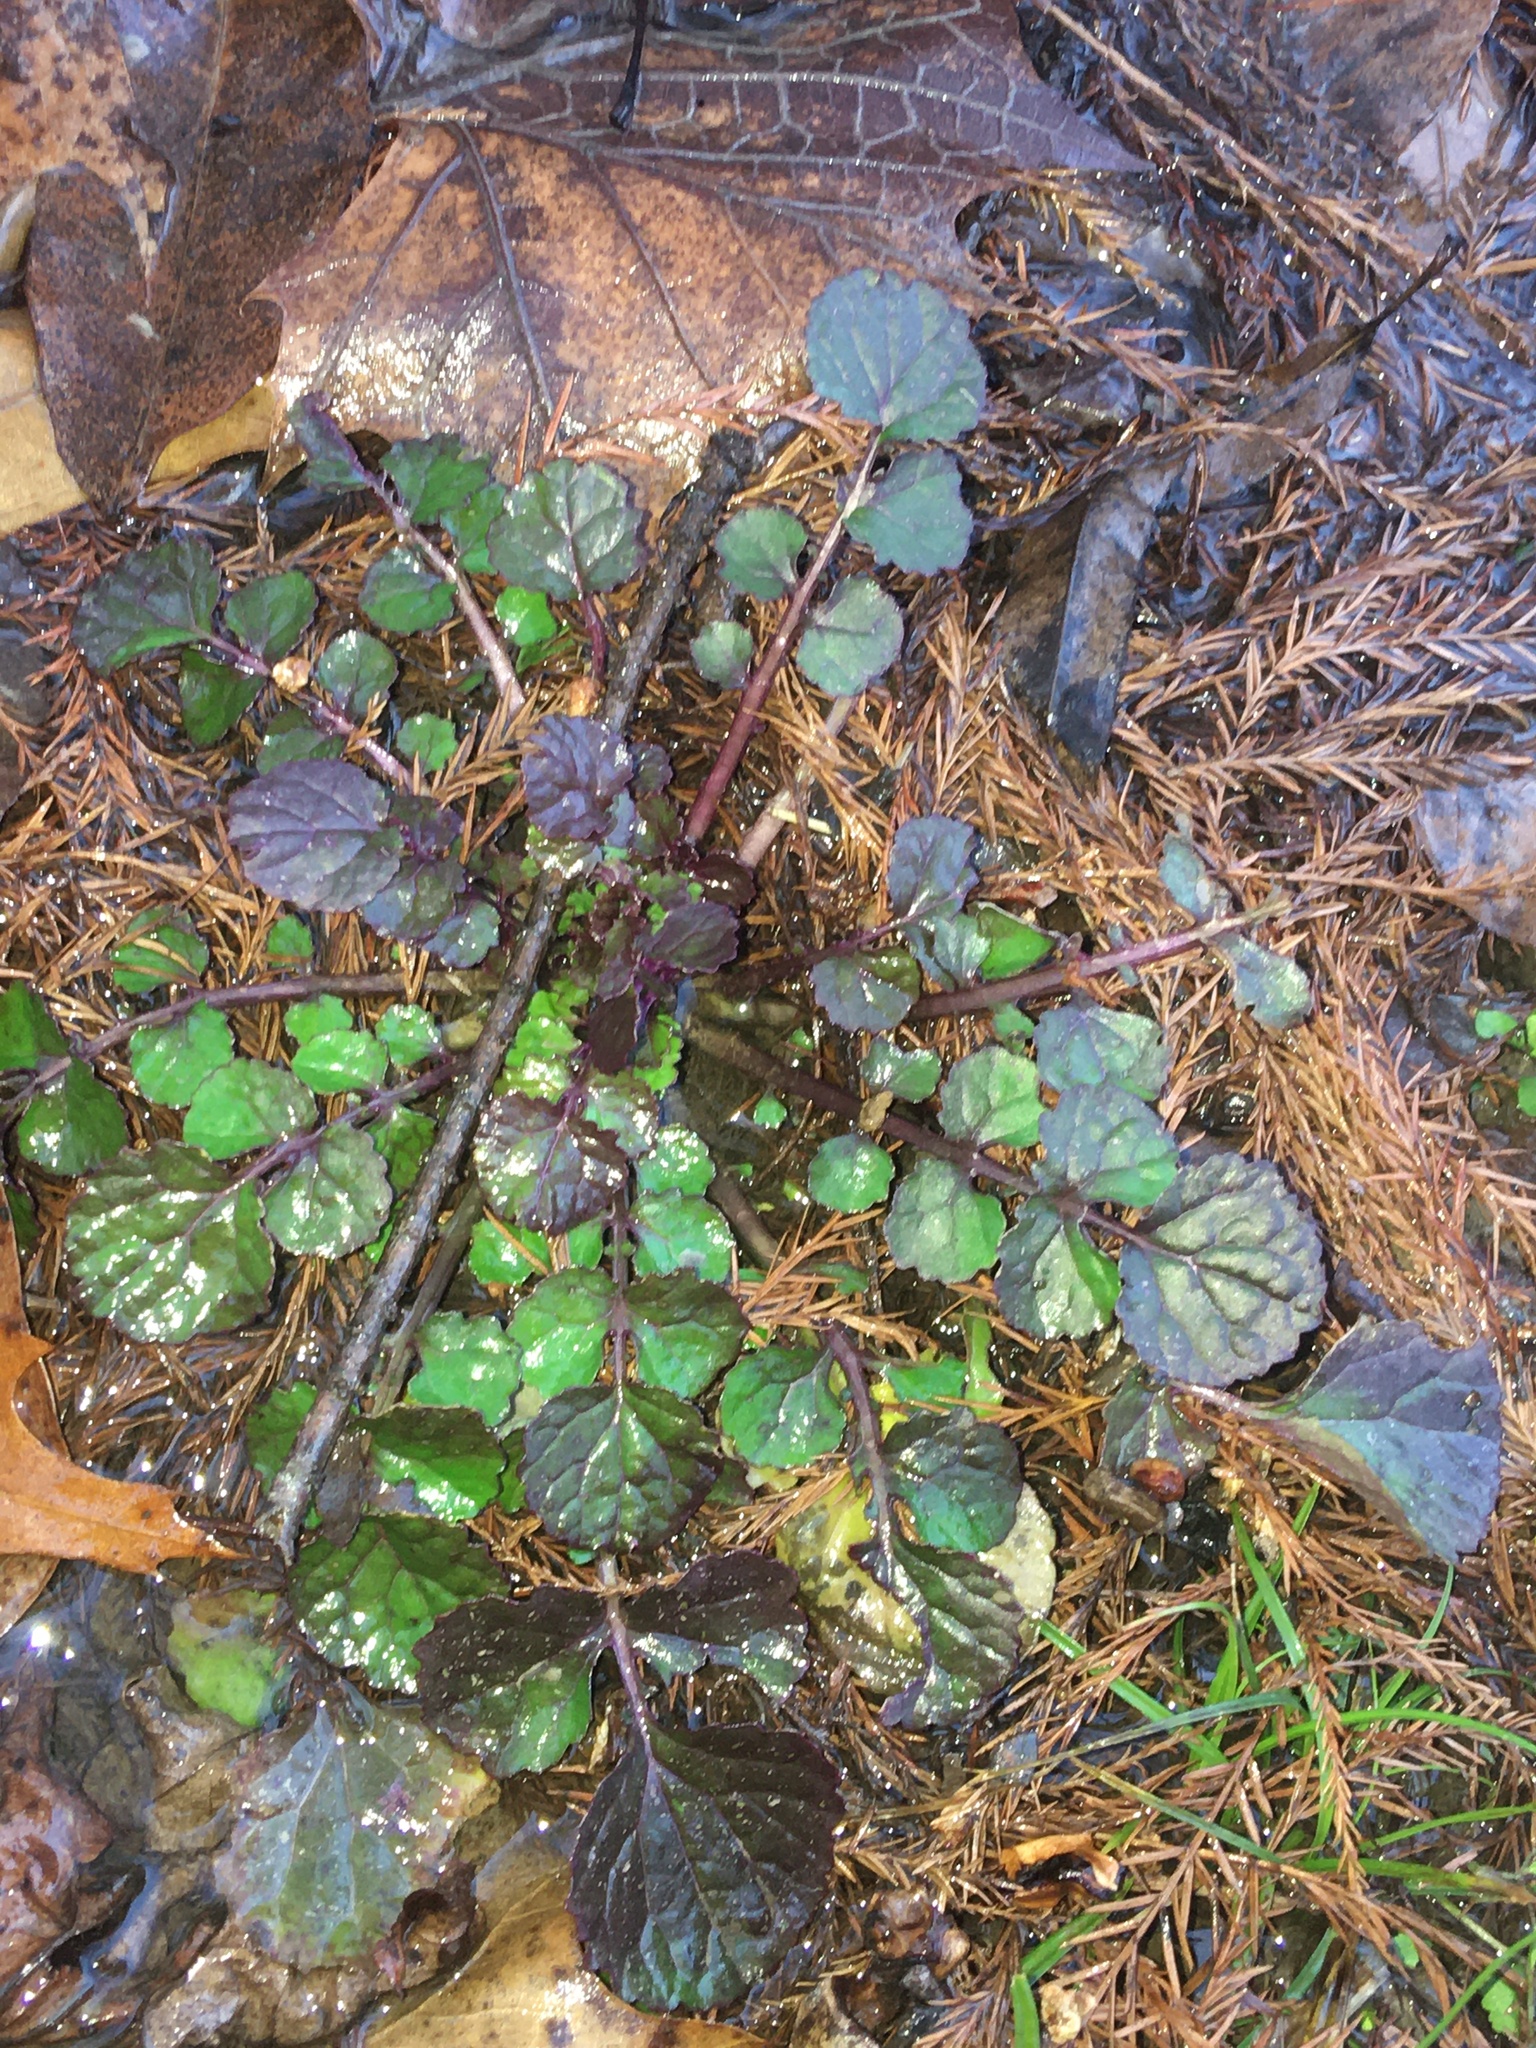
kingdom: Plantae
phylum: Tracheophyta
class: Magnoliopsida
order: Asterales
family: Asteraceae
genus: Packera
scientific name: Packera glabella
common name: Butterweed
